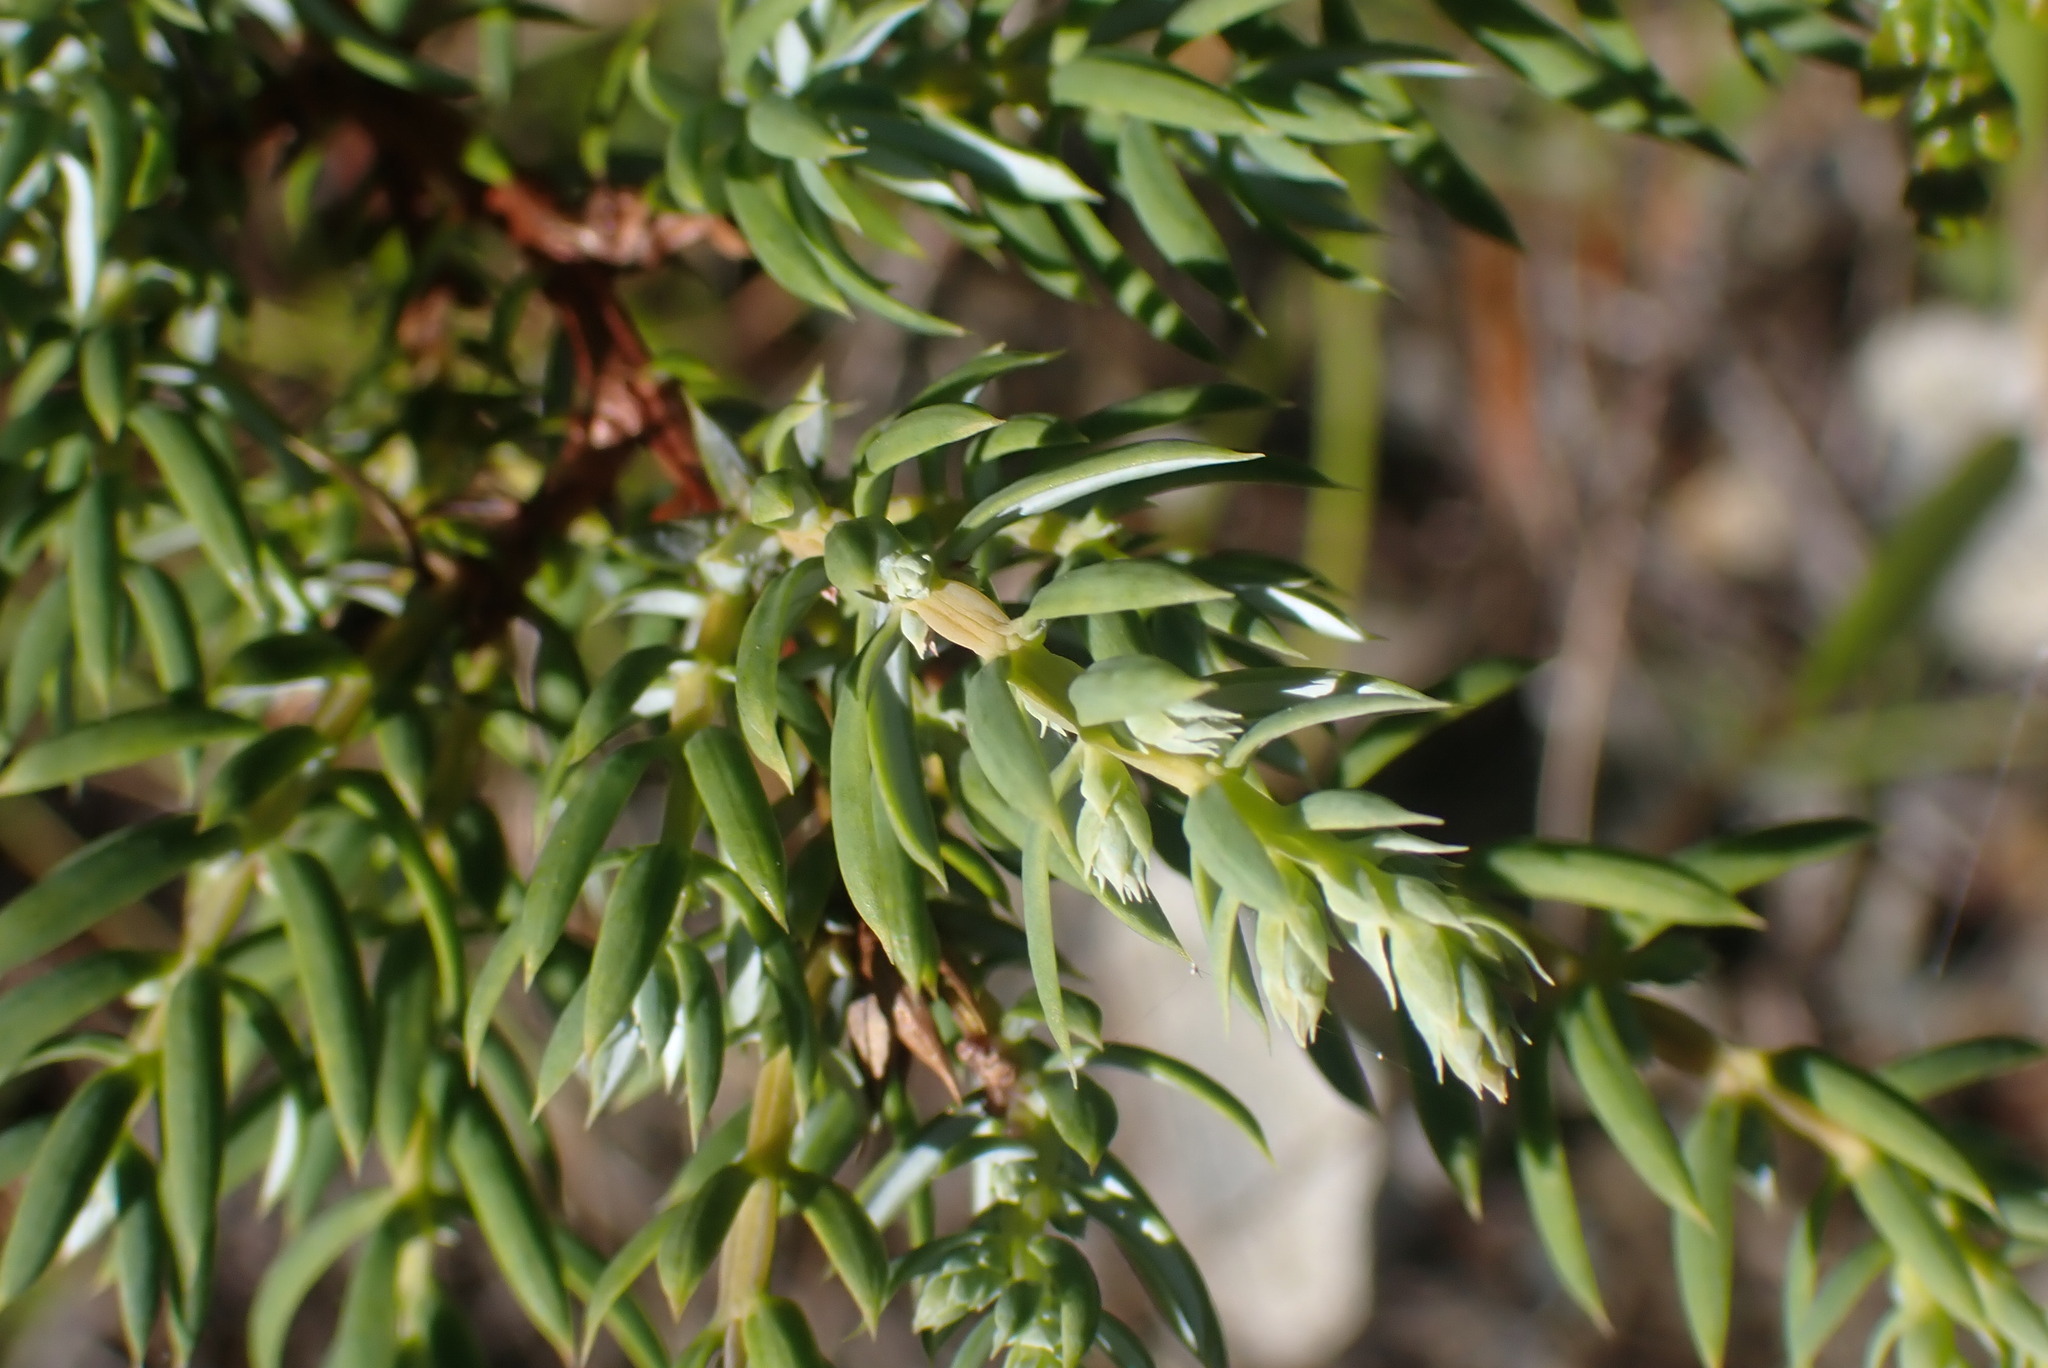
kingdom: Plantae
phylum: Tracheophyta
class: Pinopsida
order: Pinales
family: Cupressaceae
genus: Juniperus
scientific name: Juniperus communis
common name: Common juniper
